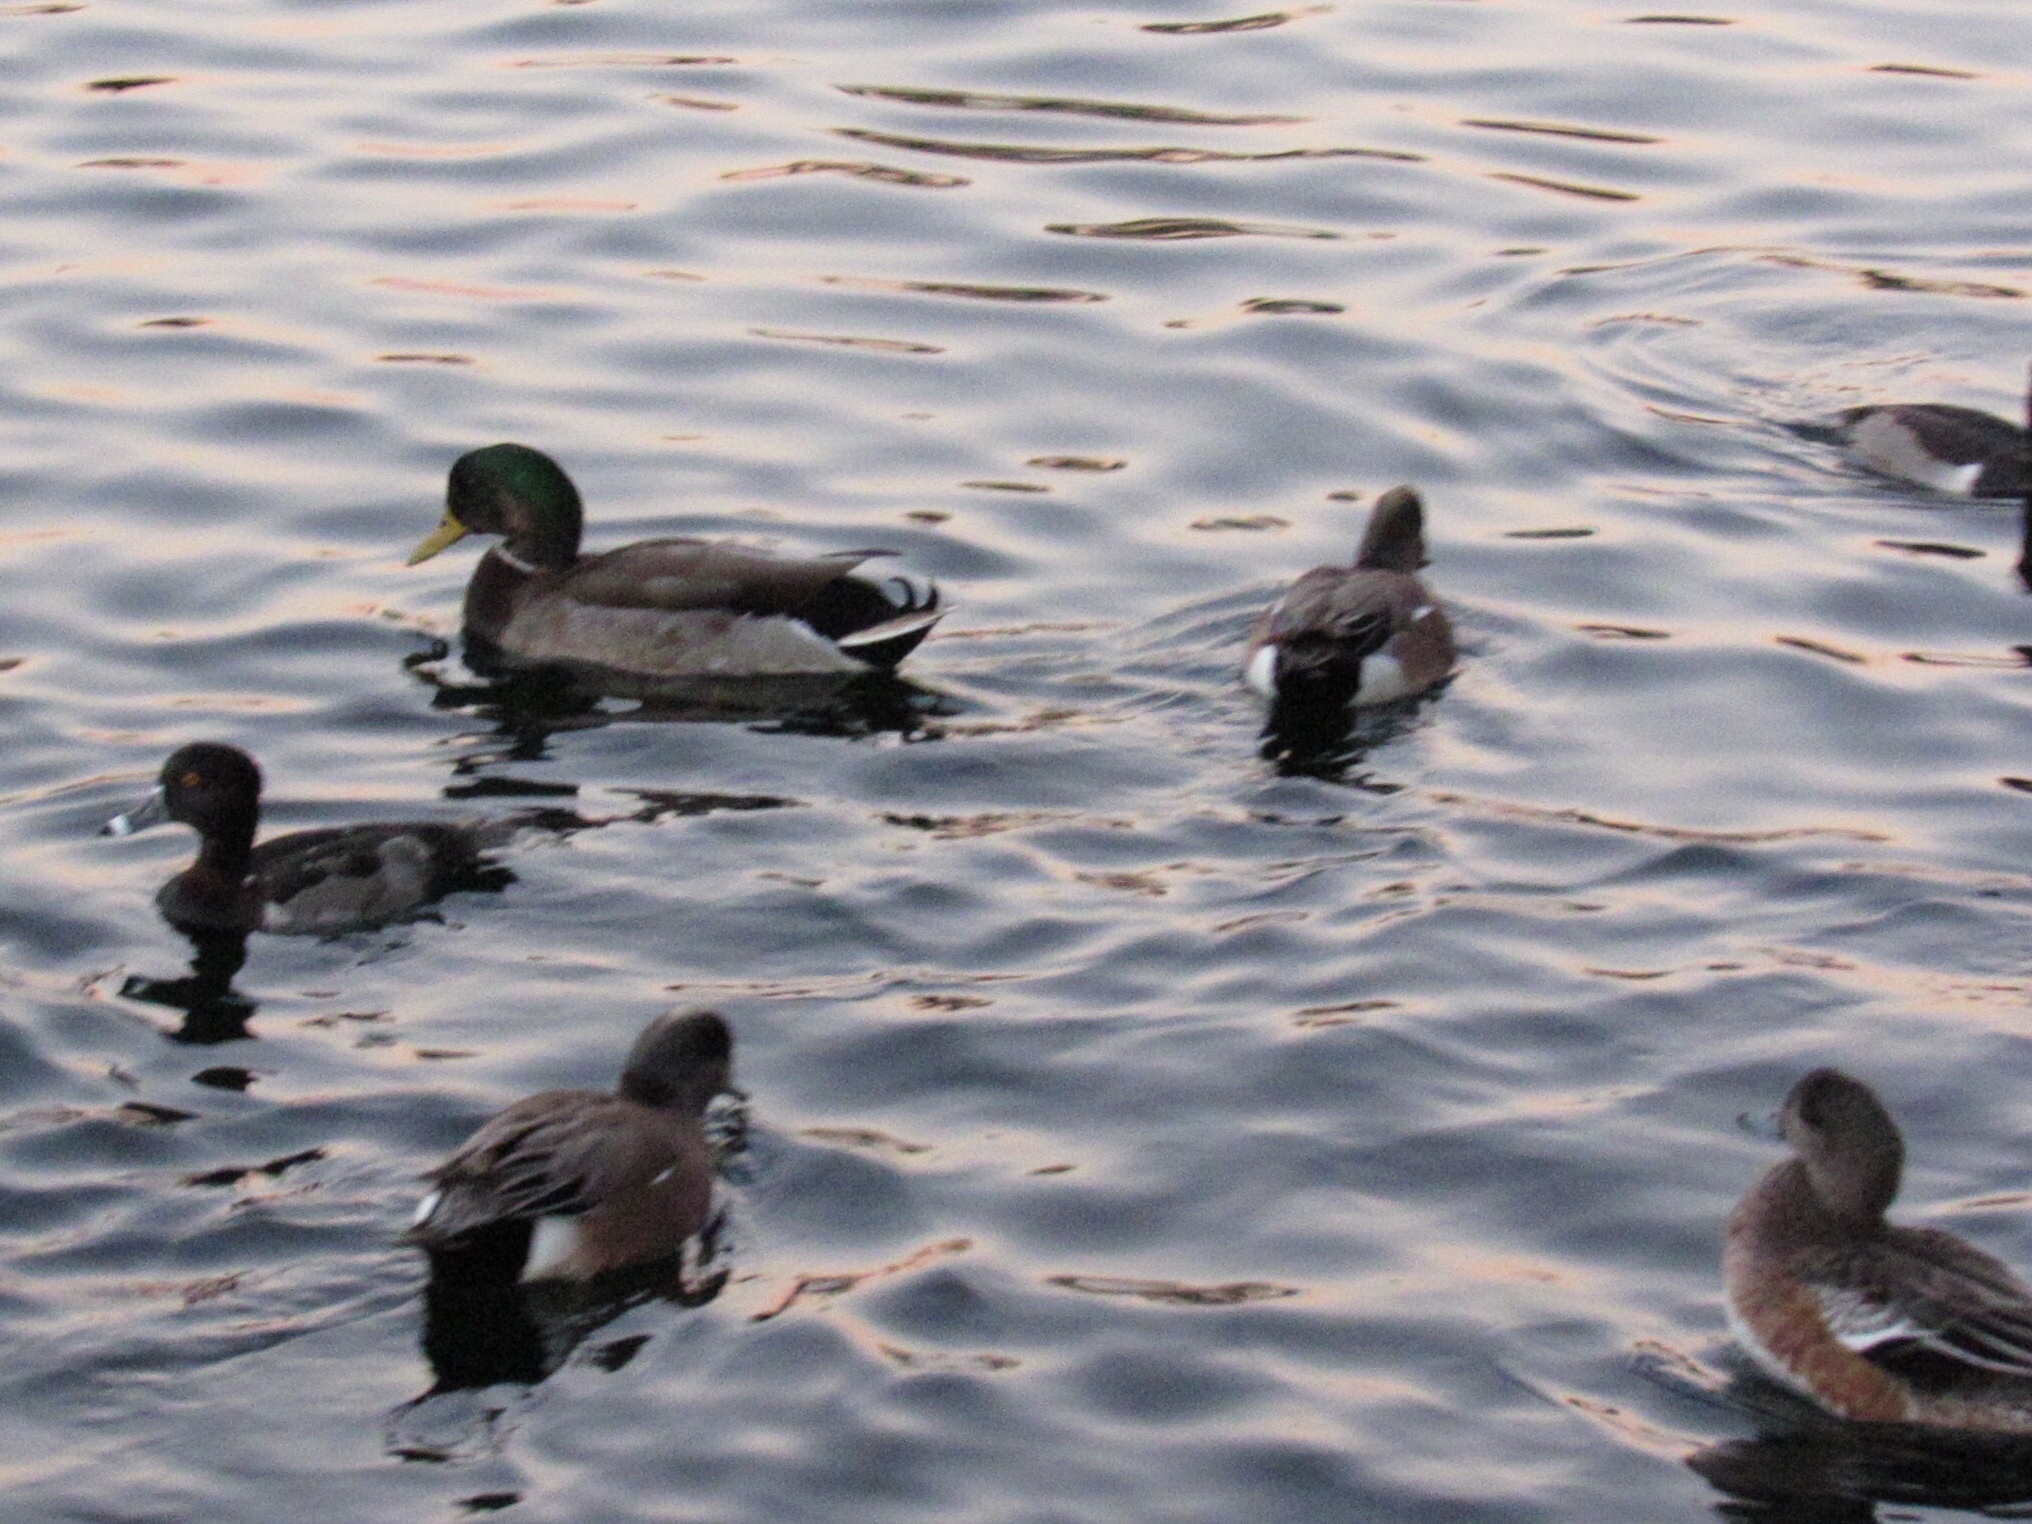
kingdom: Animalia
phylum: Chordata
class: Aves
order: Anseriformes
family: Anatidae
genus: Mareca
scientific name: Mareca americana
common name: American wigeon
